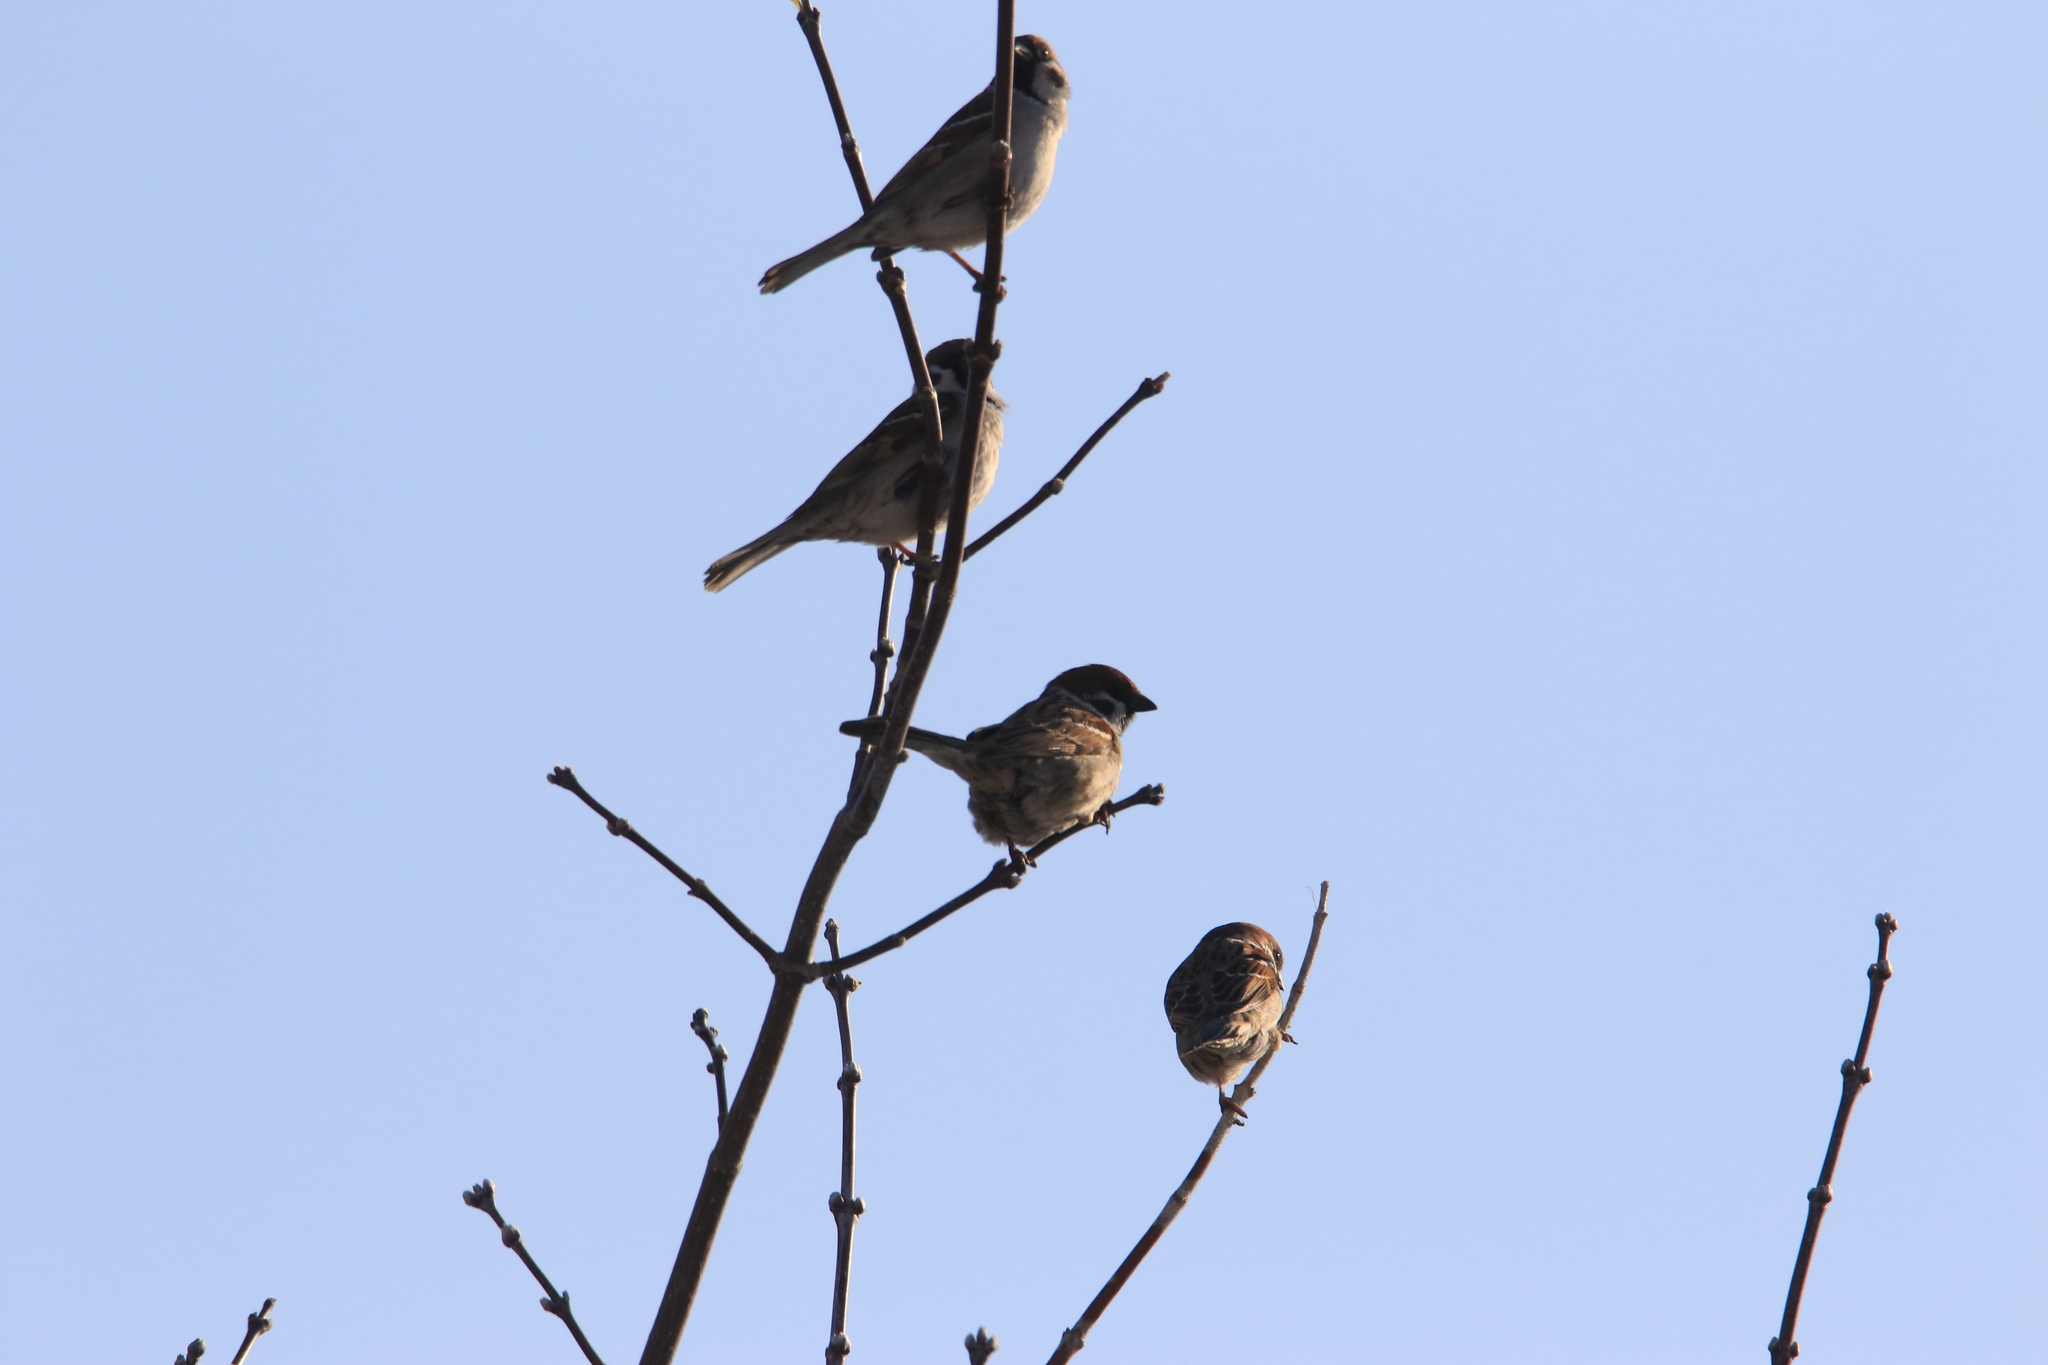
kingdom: Animalia
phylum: Chordata
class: Aves
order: Passeriformes
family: Passeridae
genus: Passer
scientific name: Passer montanus
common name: Eurasian tree sparrow
